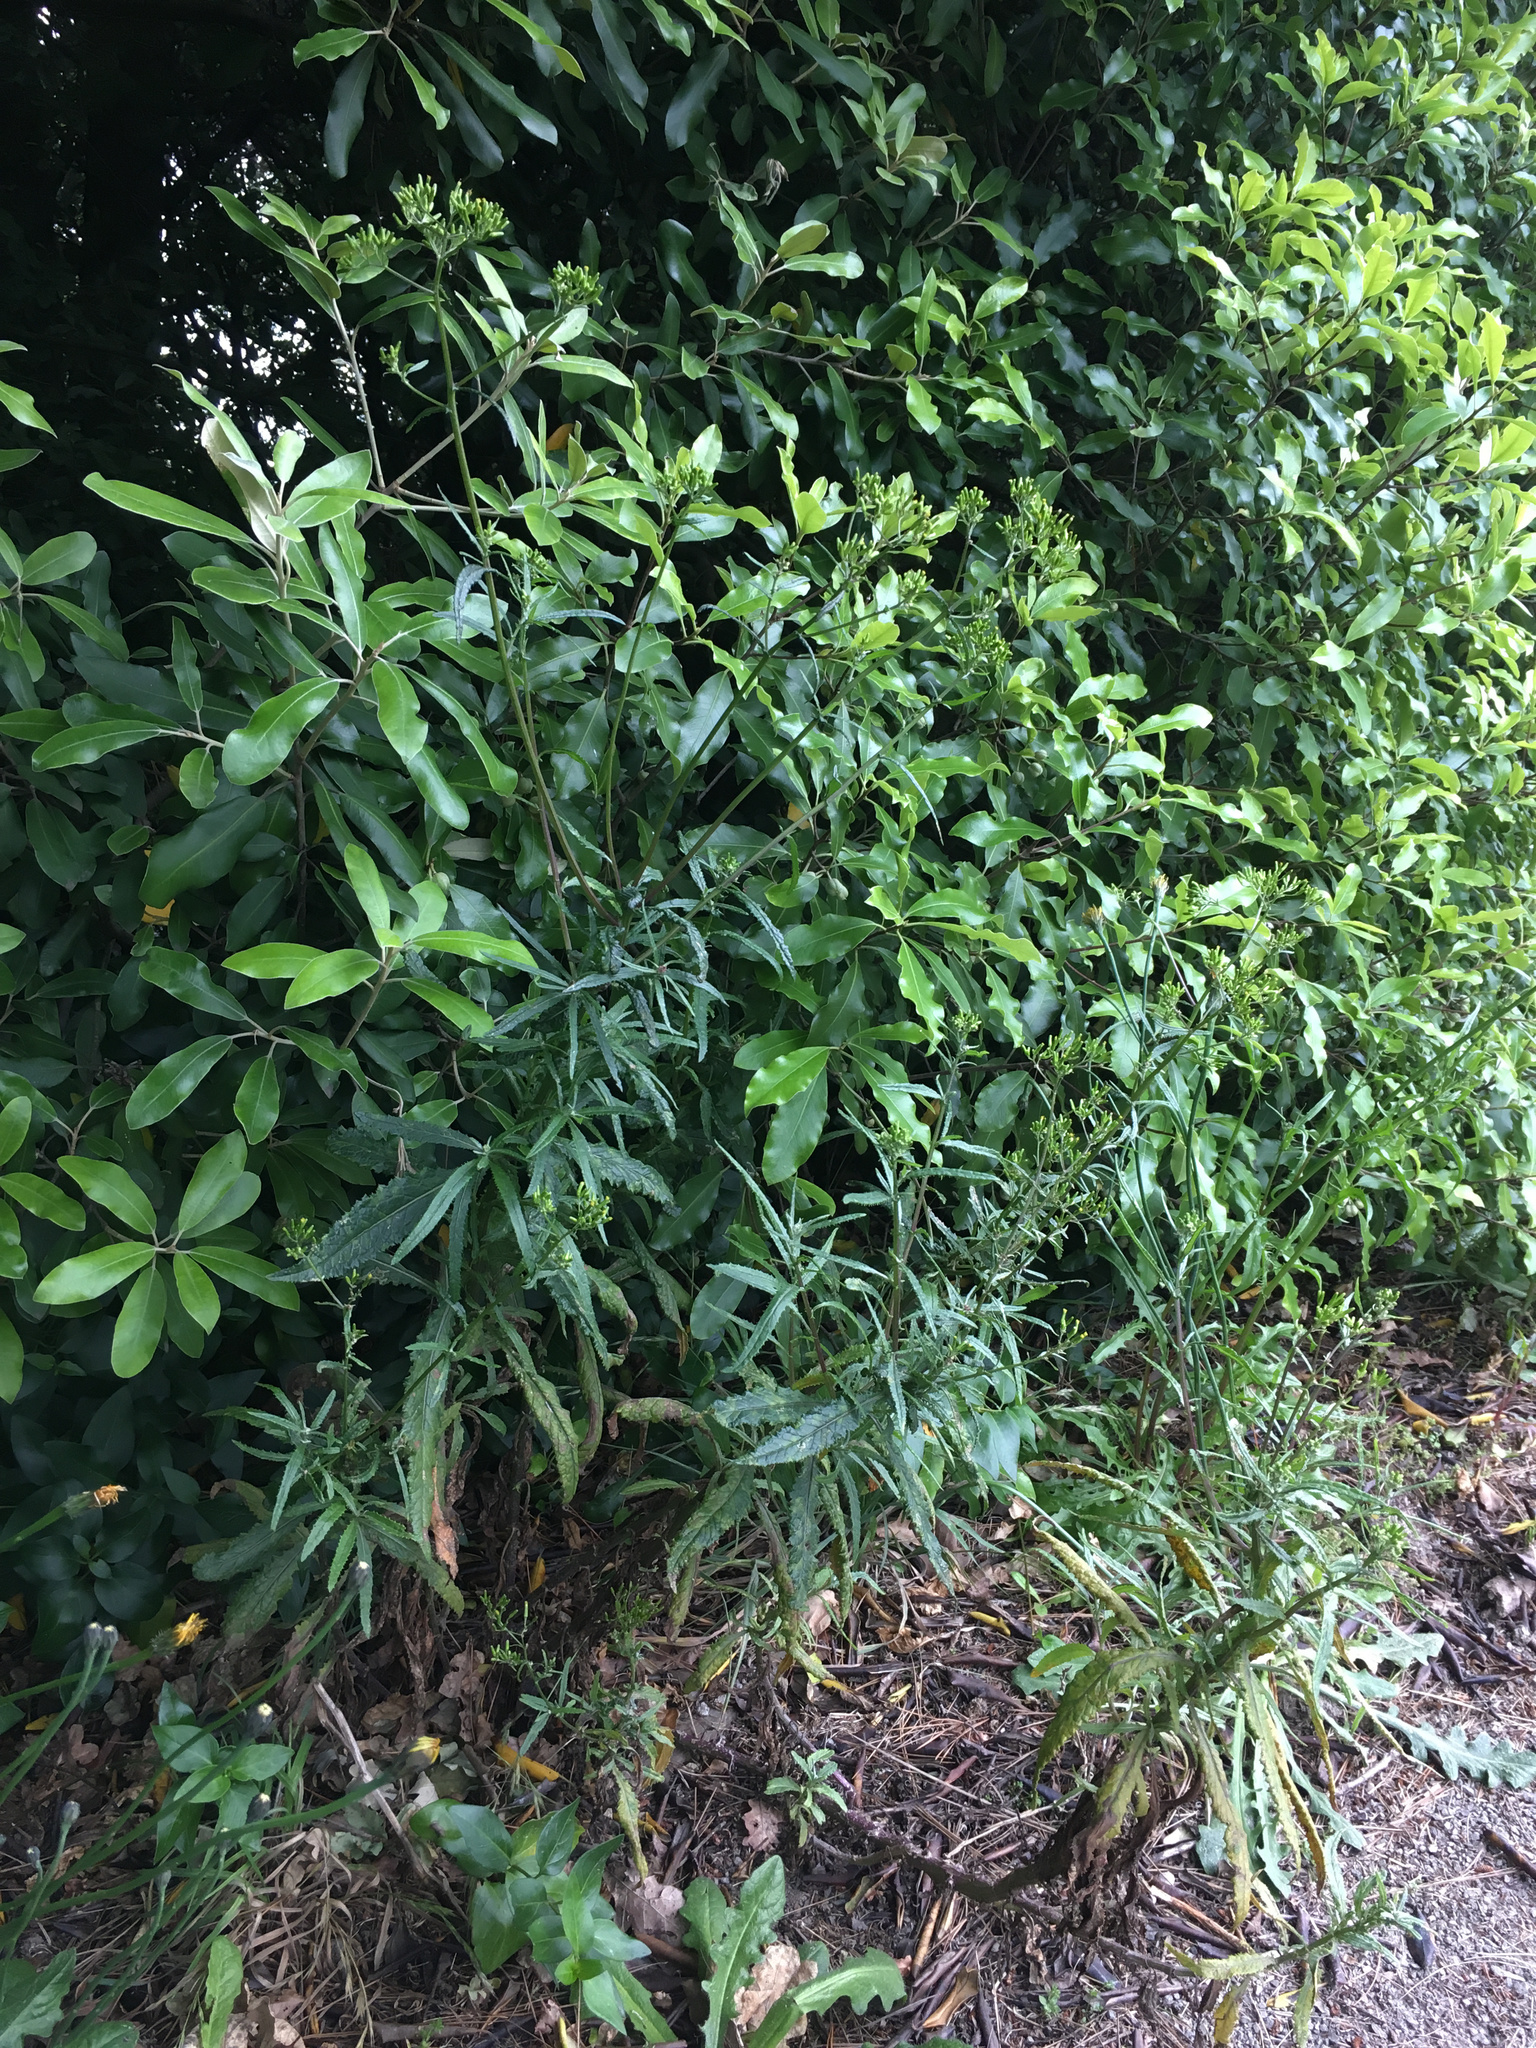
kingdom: Plantae
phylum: Tracheophyta
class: Magnoliopsida
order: Asterales
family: Asteraceae
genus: Senecio
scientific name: Senecio minimus
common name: Toothed fireweed
